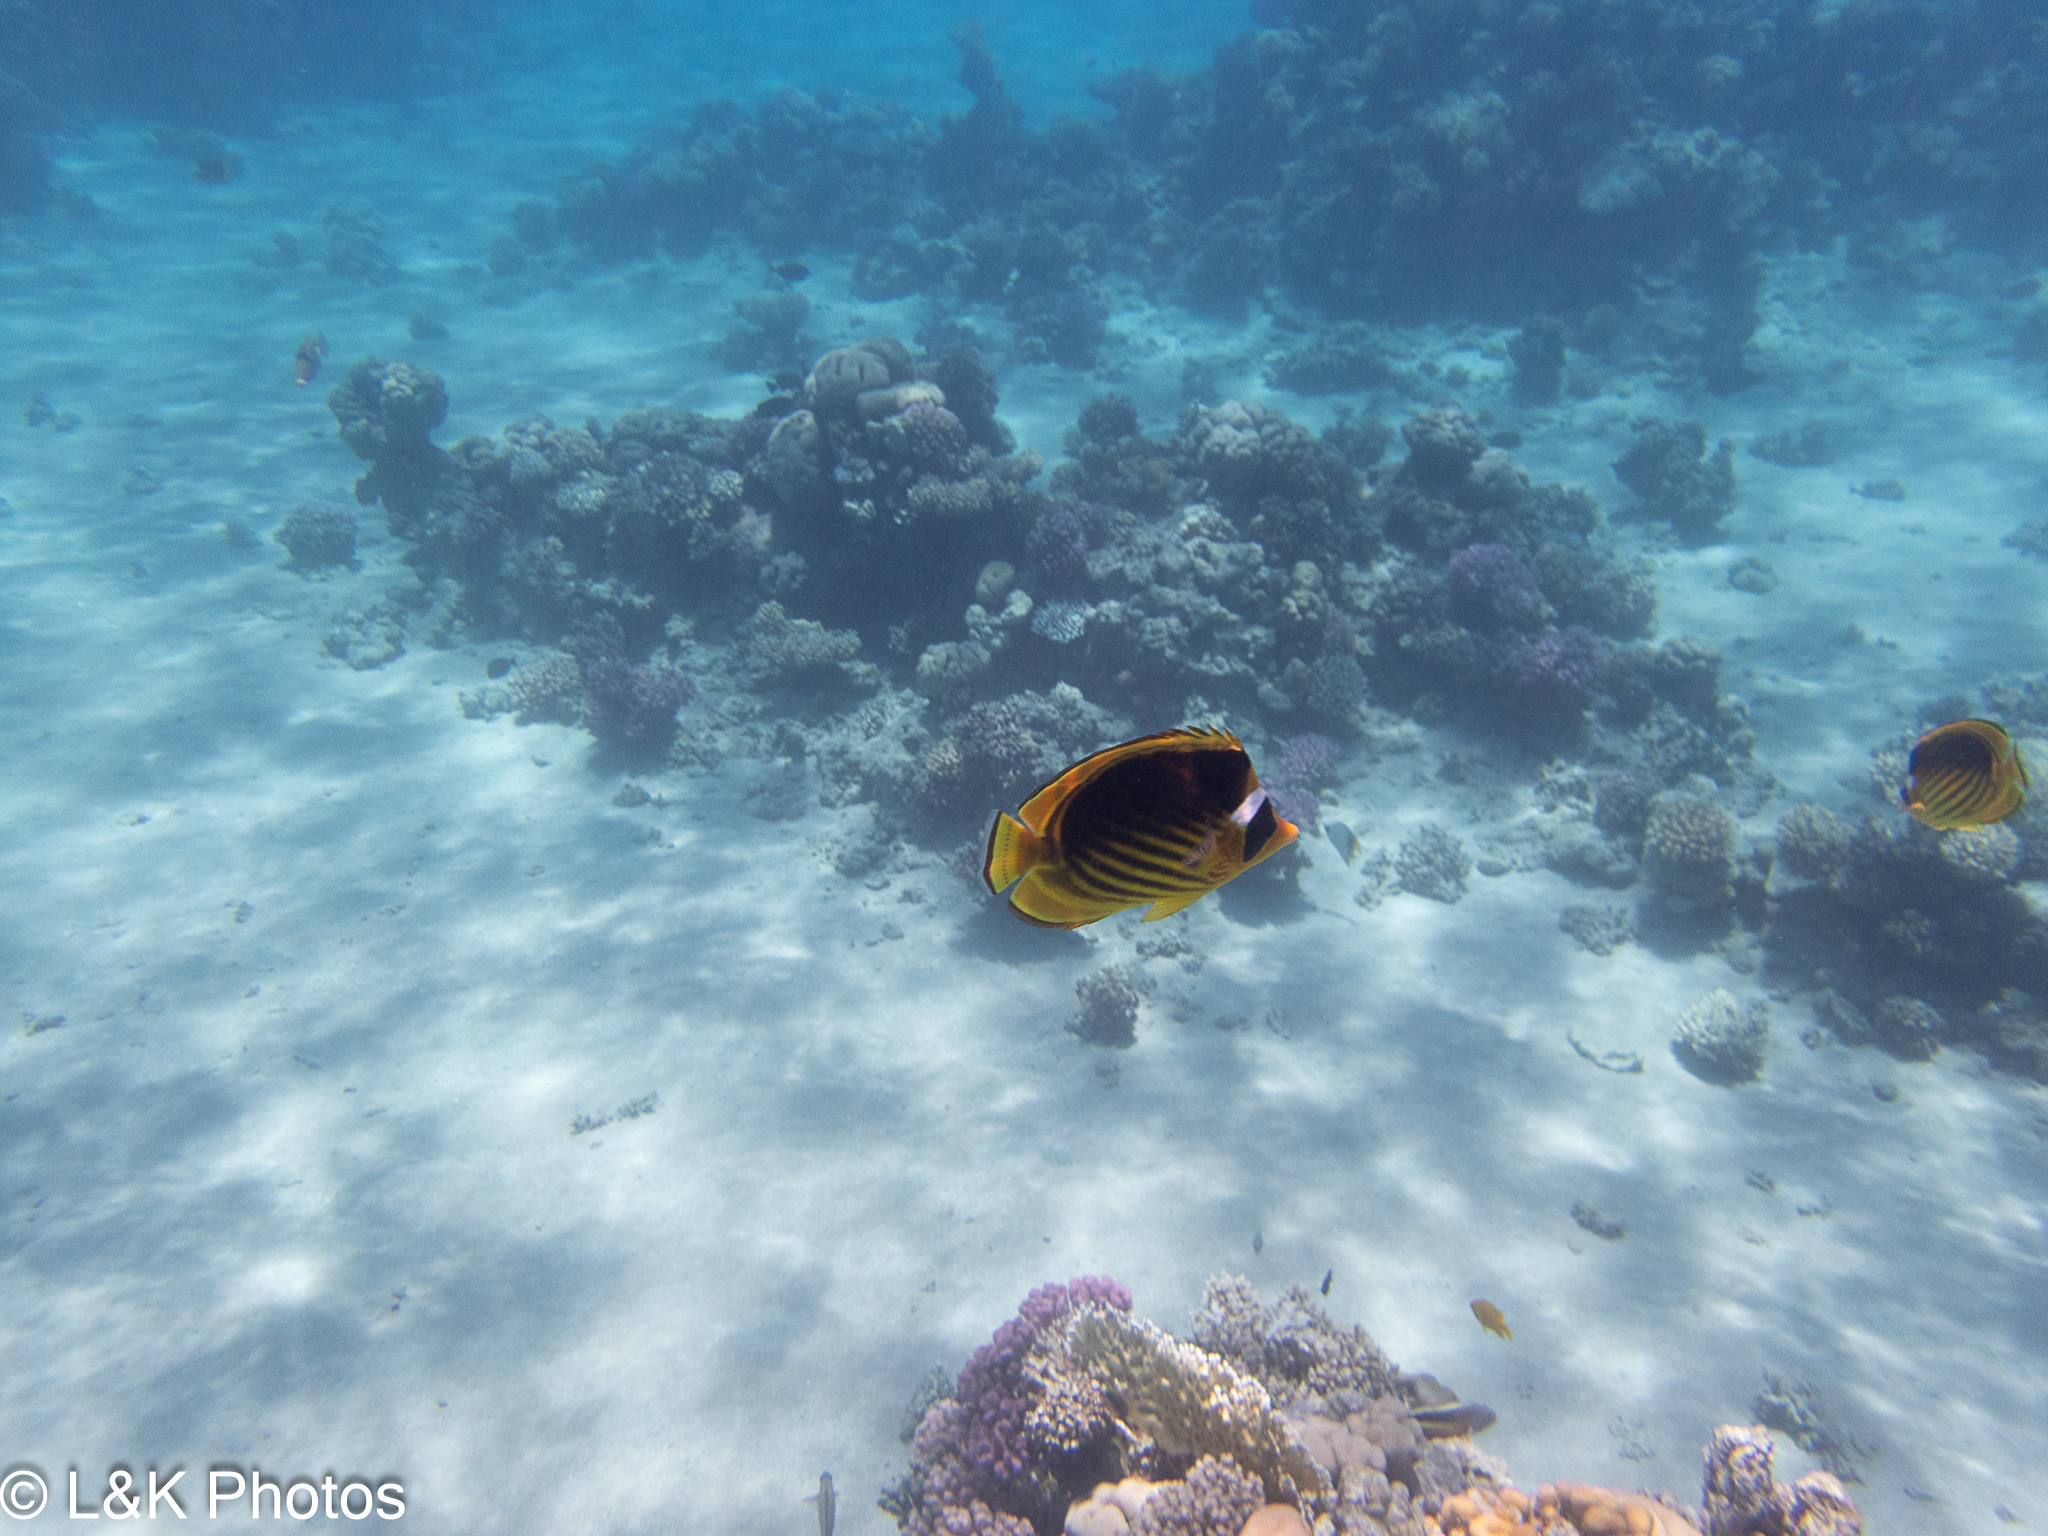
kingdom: Animalia
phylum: Chordata
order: Perciformes
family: Chaetodontidae
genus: Chaetodon
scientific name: Chaetodon fasciatus
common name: Diagonal butterflyfish
